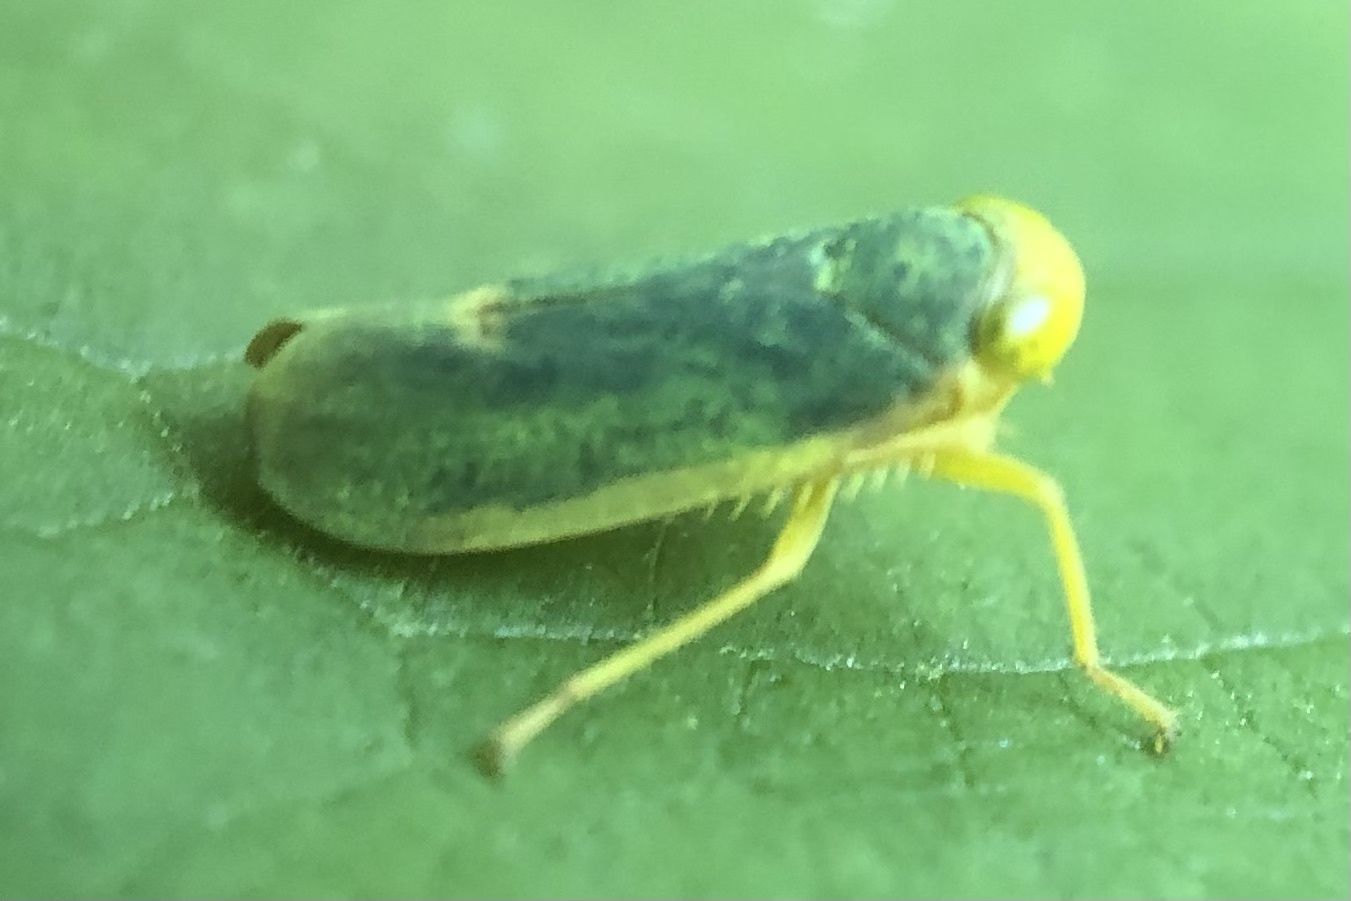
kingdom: Animalia
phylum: Arthropoda
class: Insecta
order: Hemiptera
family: Cicadellidae
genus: Jikradia
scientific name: Jikradia melanotus
